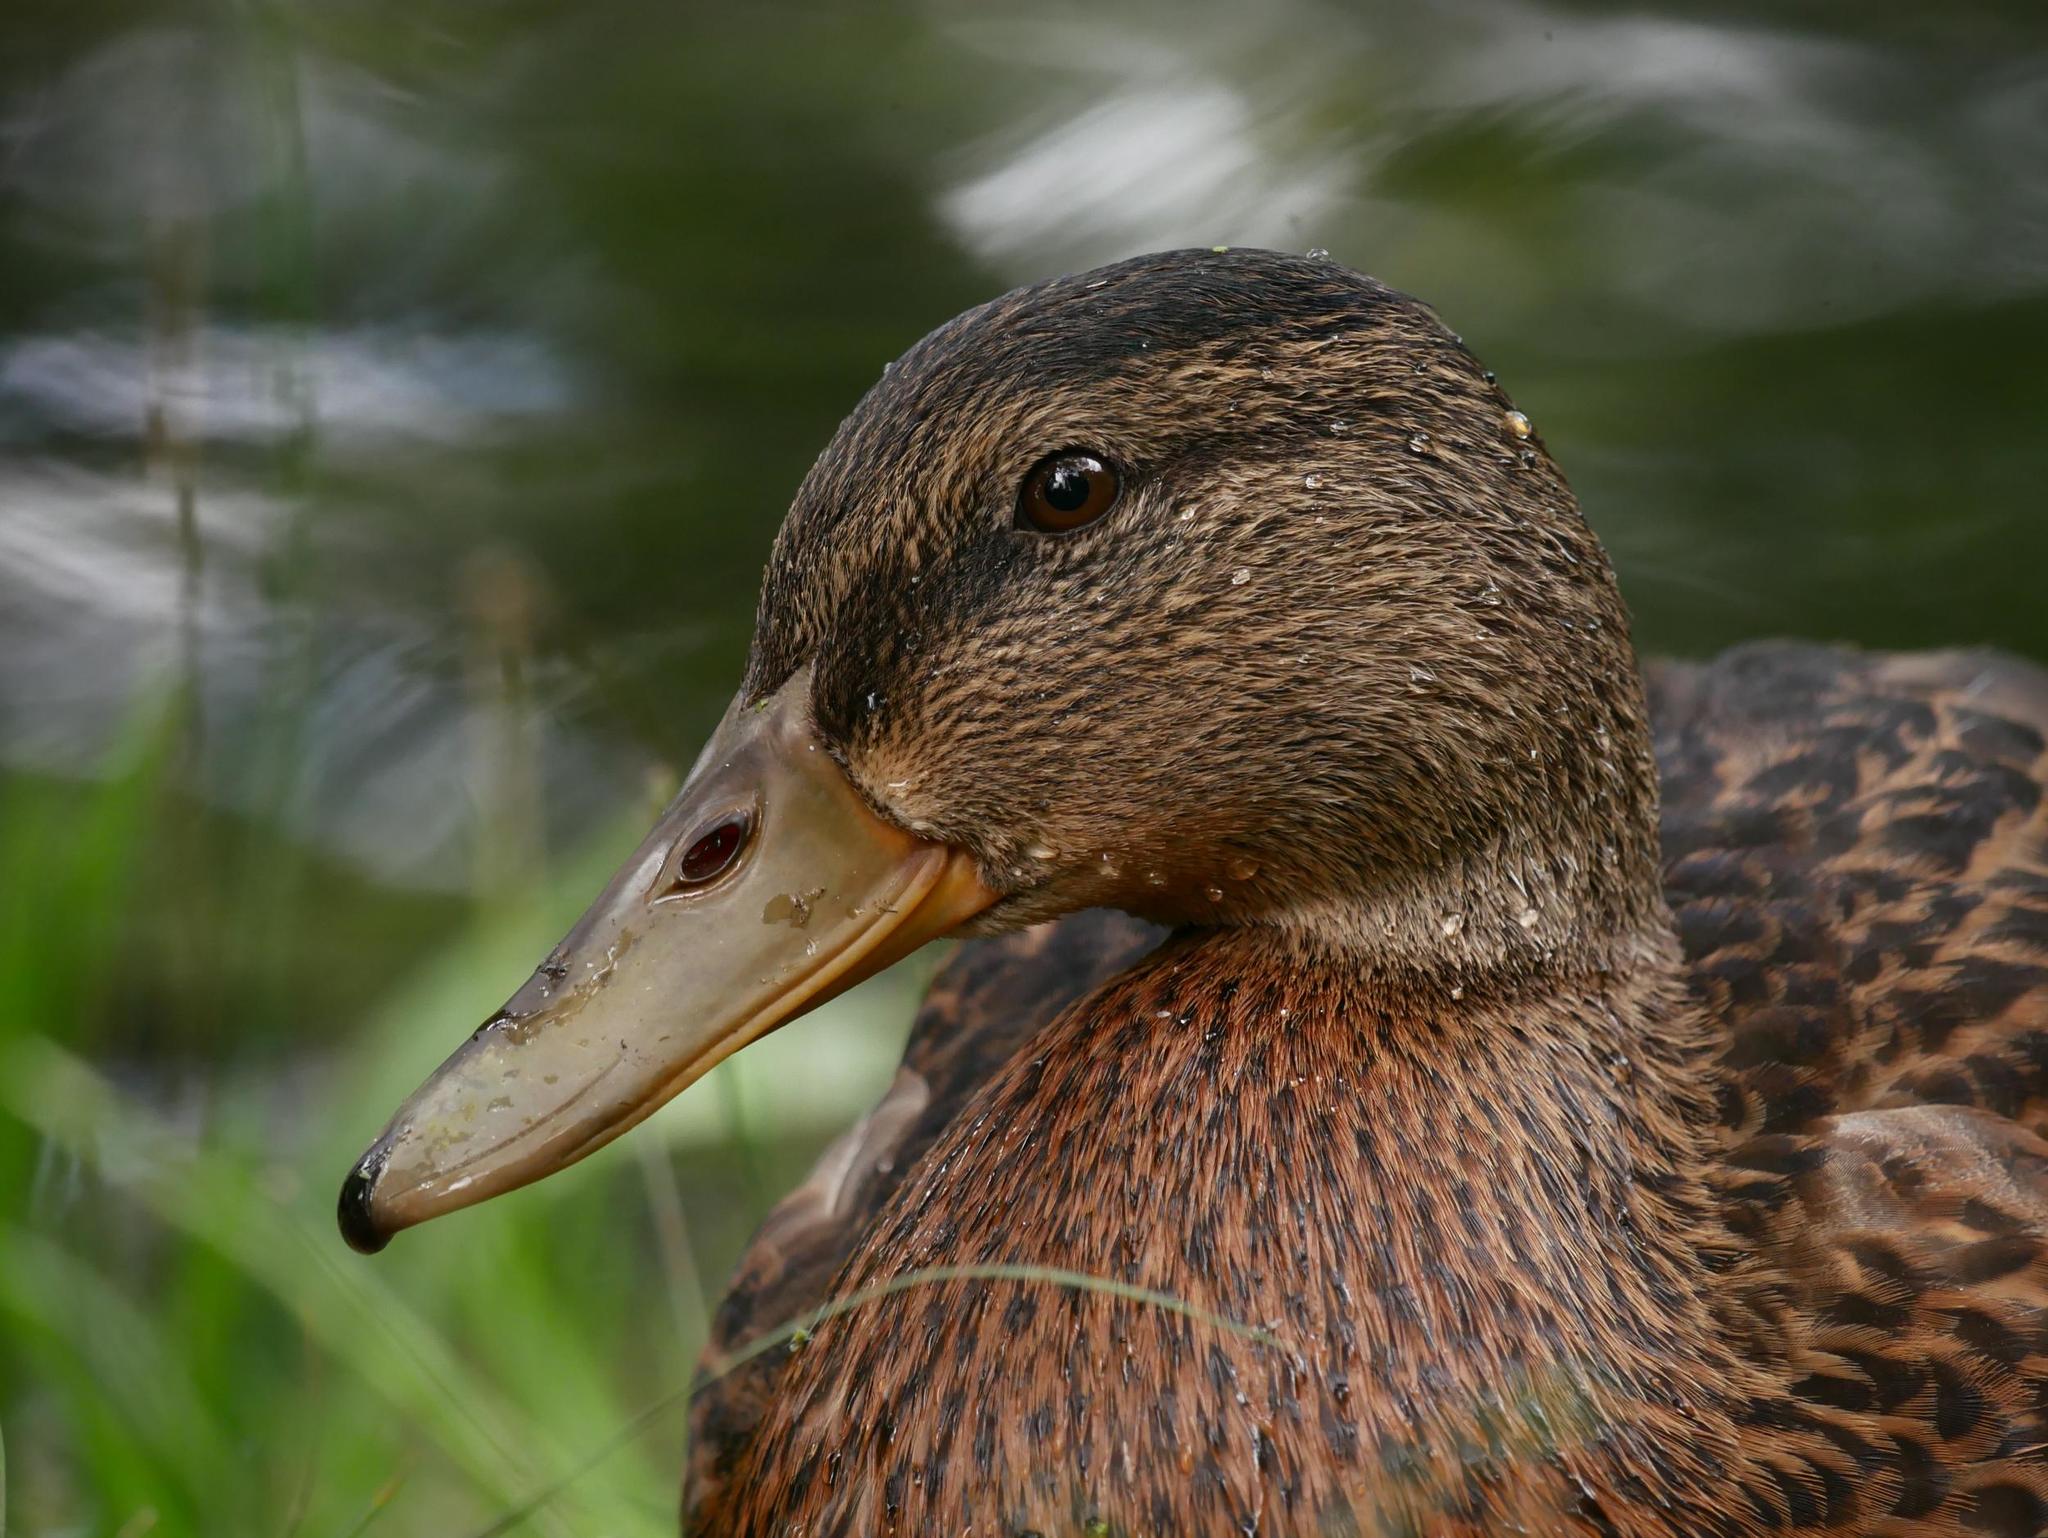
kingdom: Animalia
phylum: Chordata
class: Aves
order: Anseriformes
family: Anatidae
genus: Anas
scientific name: Anas platyrhynchos
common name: Mallard
